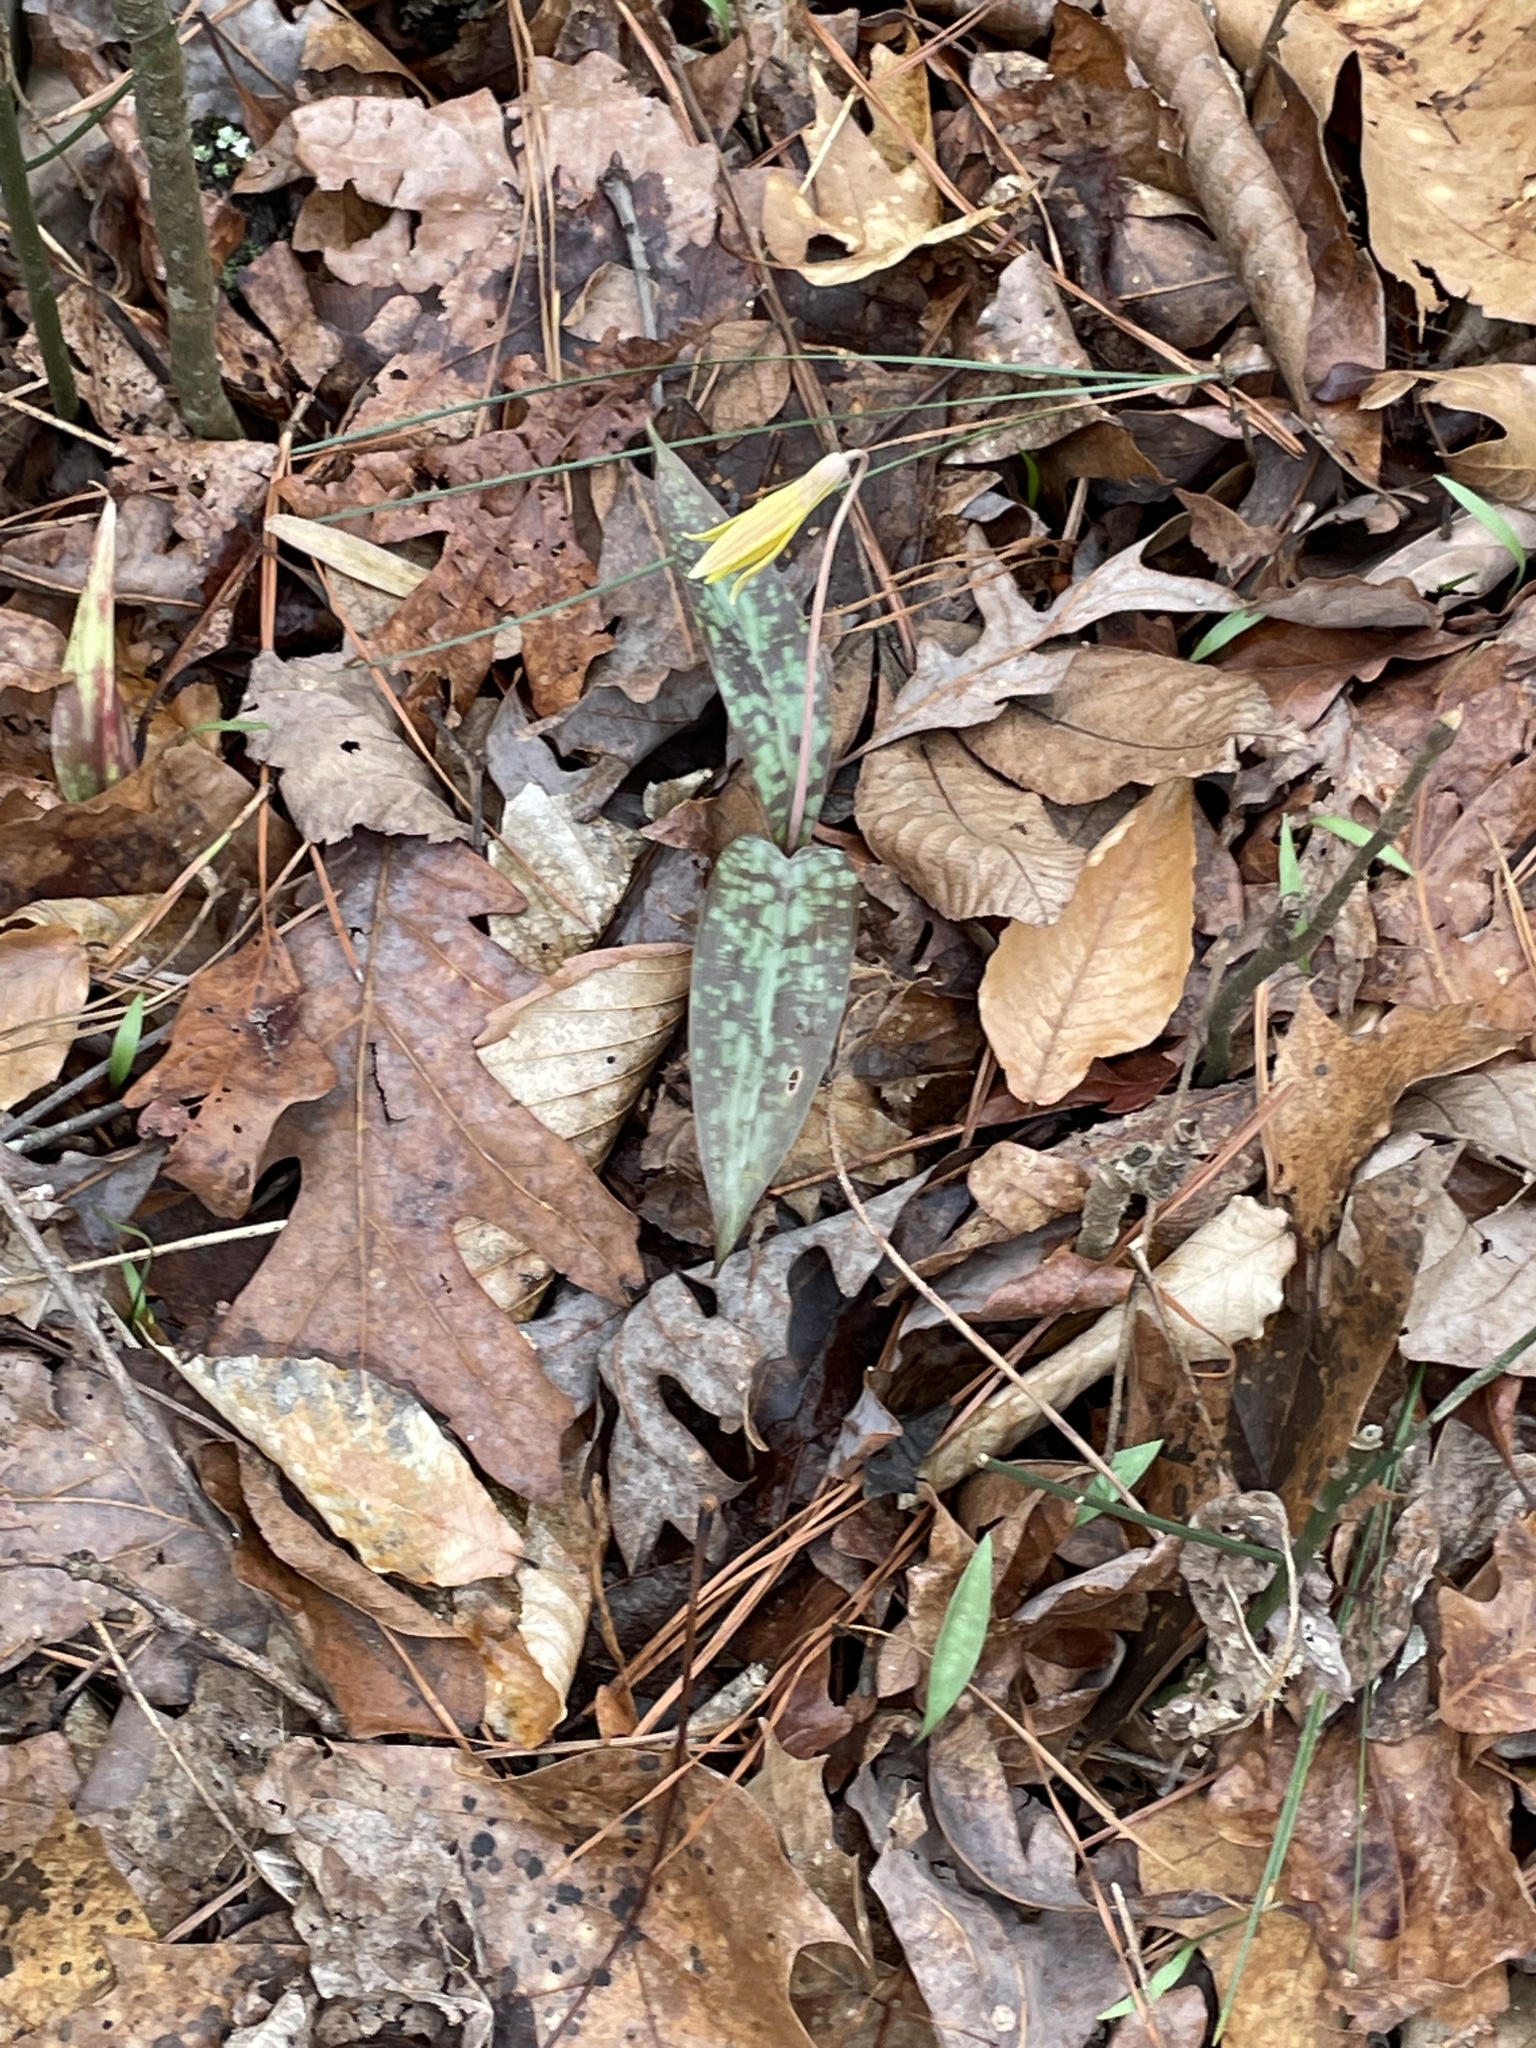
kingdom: Plantae
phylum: Tracheophyta
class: Liliopsida
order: Liliales
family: Liliaceae
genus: Erythronium
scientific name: Erythronium umbilicatum
